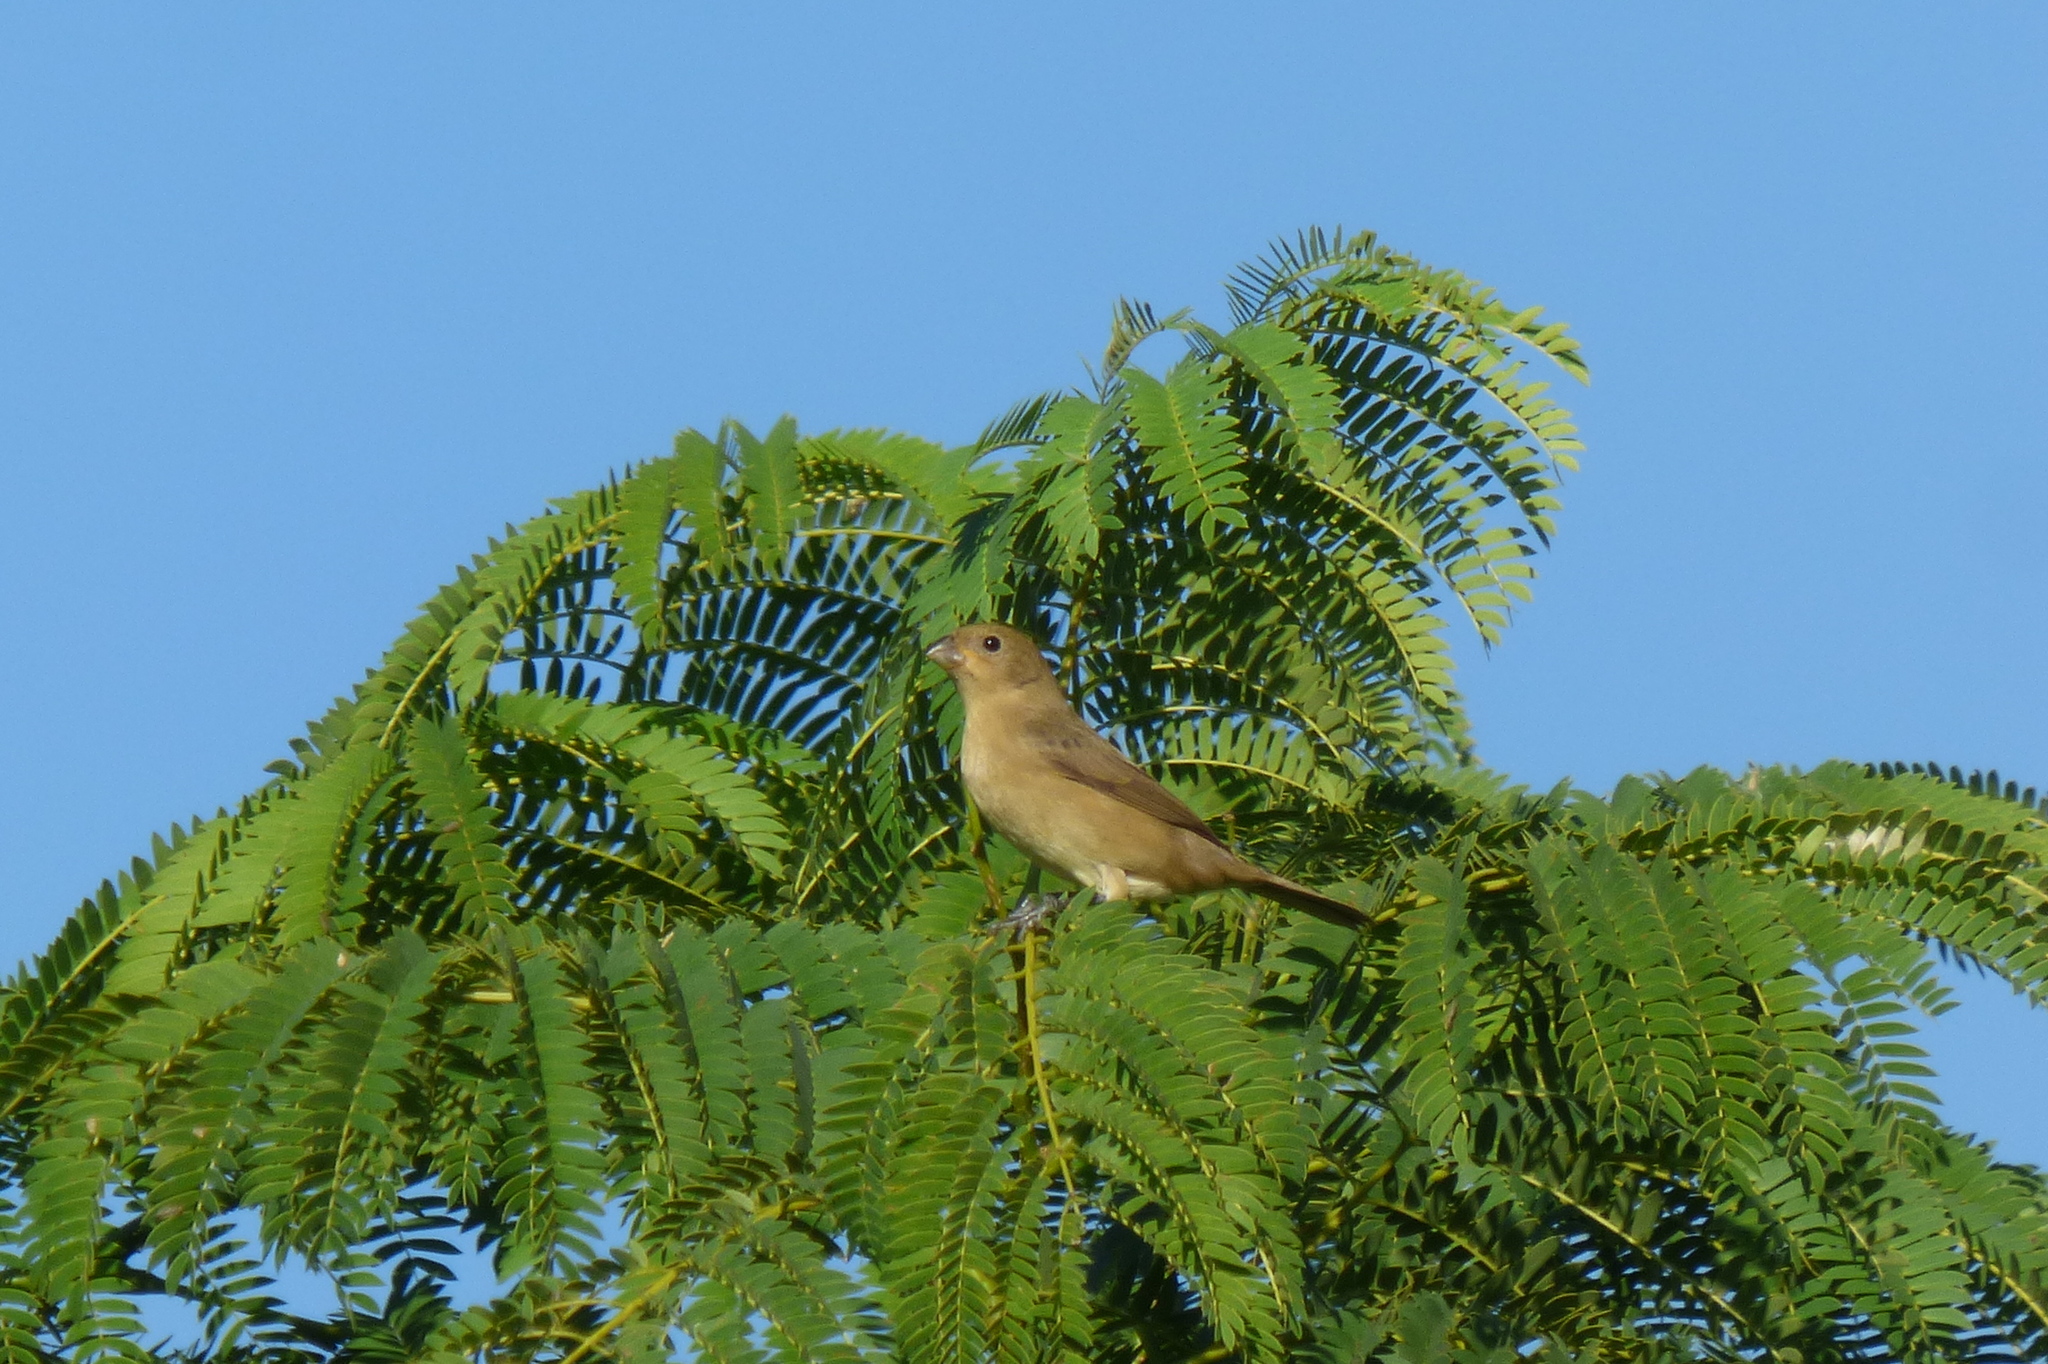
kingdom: Animalia
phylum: Chordata
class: Aves
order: Passeriformes
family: Thraupidae
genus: Sporophila
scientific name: Sporophila caerulescens
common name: Double-collared seedeater
